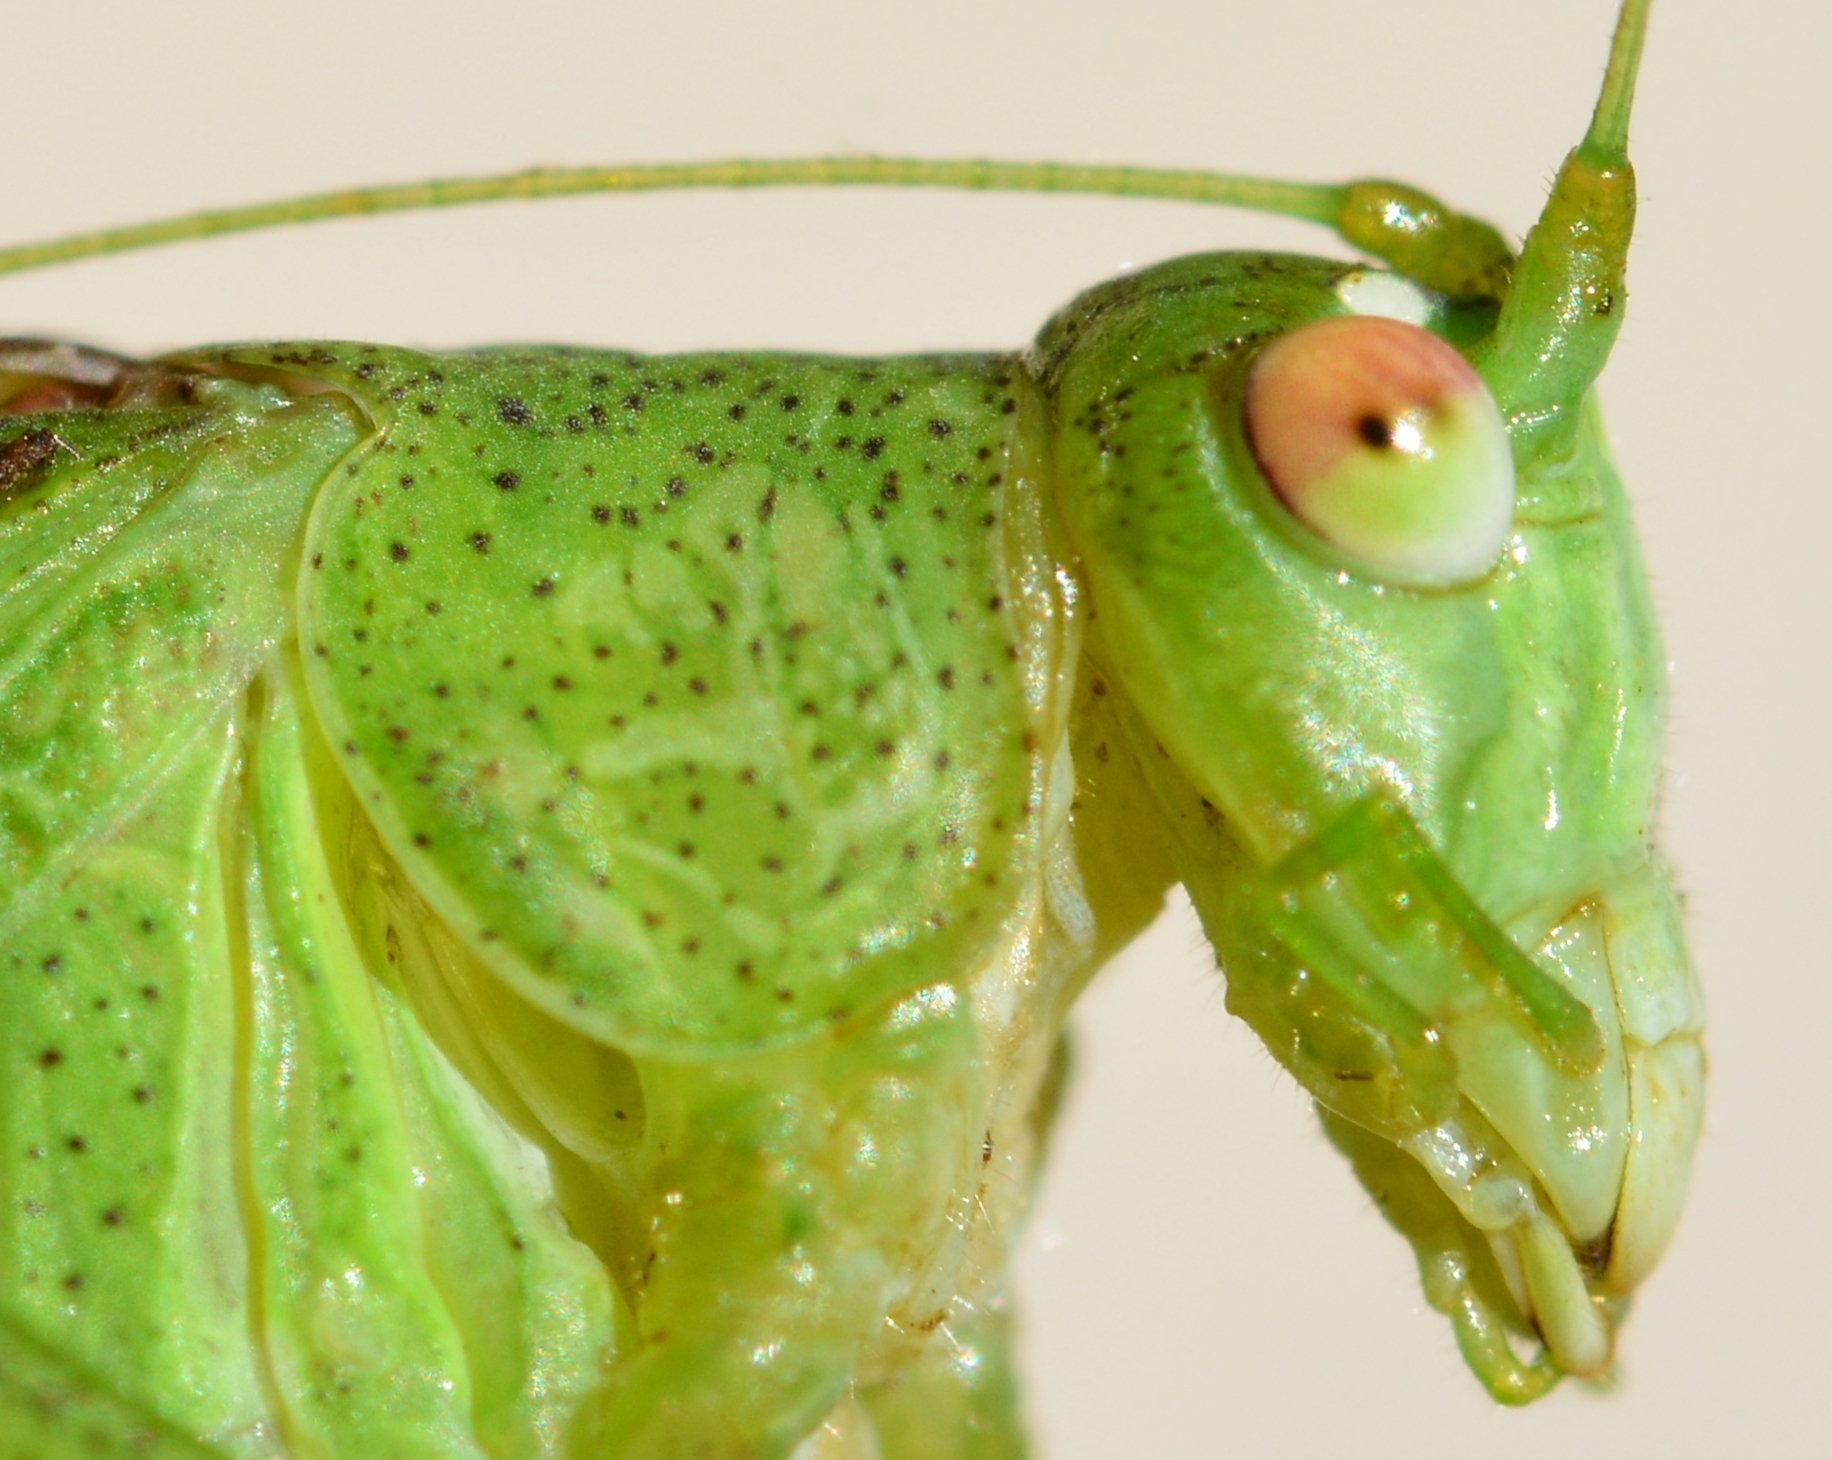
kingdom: Animalia
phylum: Arthropoda
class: Insecta
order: Orthoptera
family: Tettigoniidae
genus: Phaneroptera
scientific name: Phaneroptera nana
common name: Southern sickle bush-cricket
